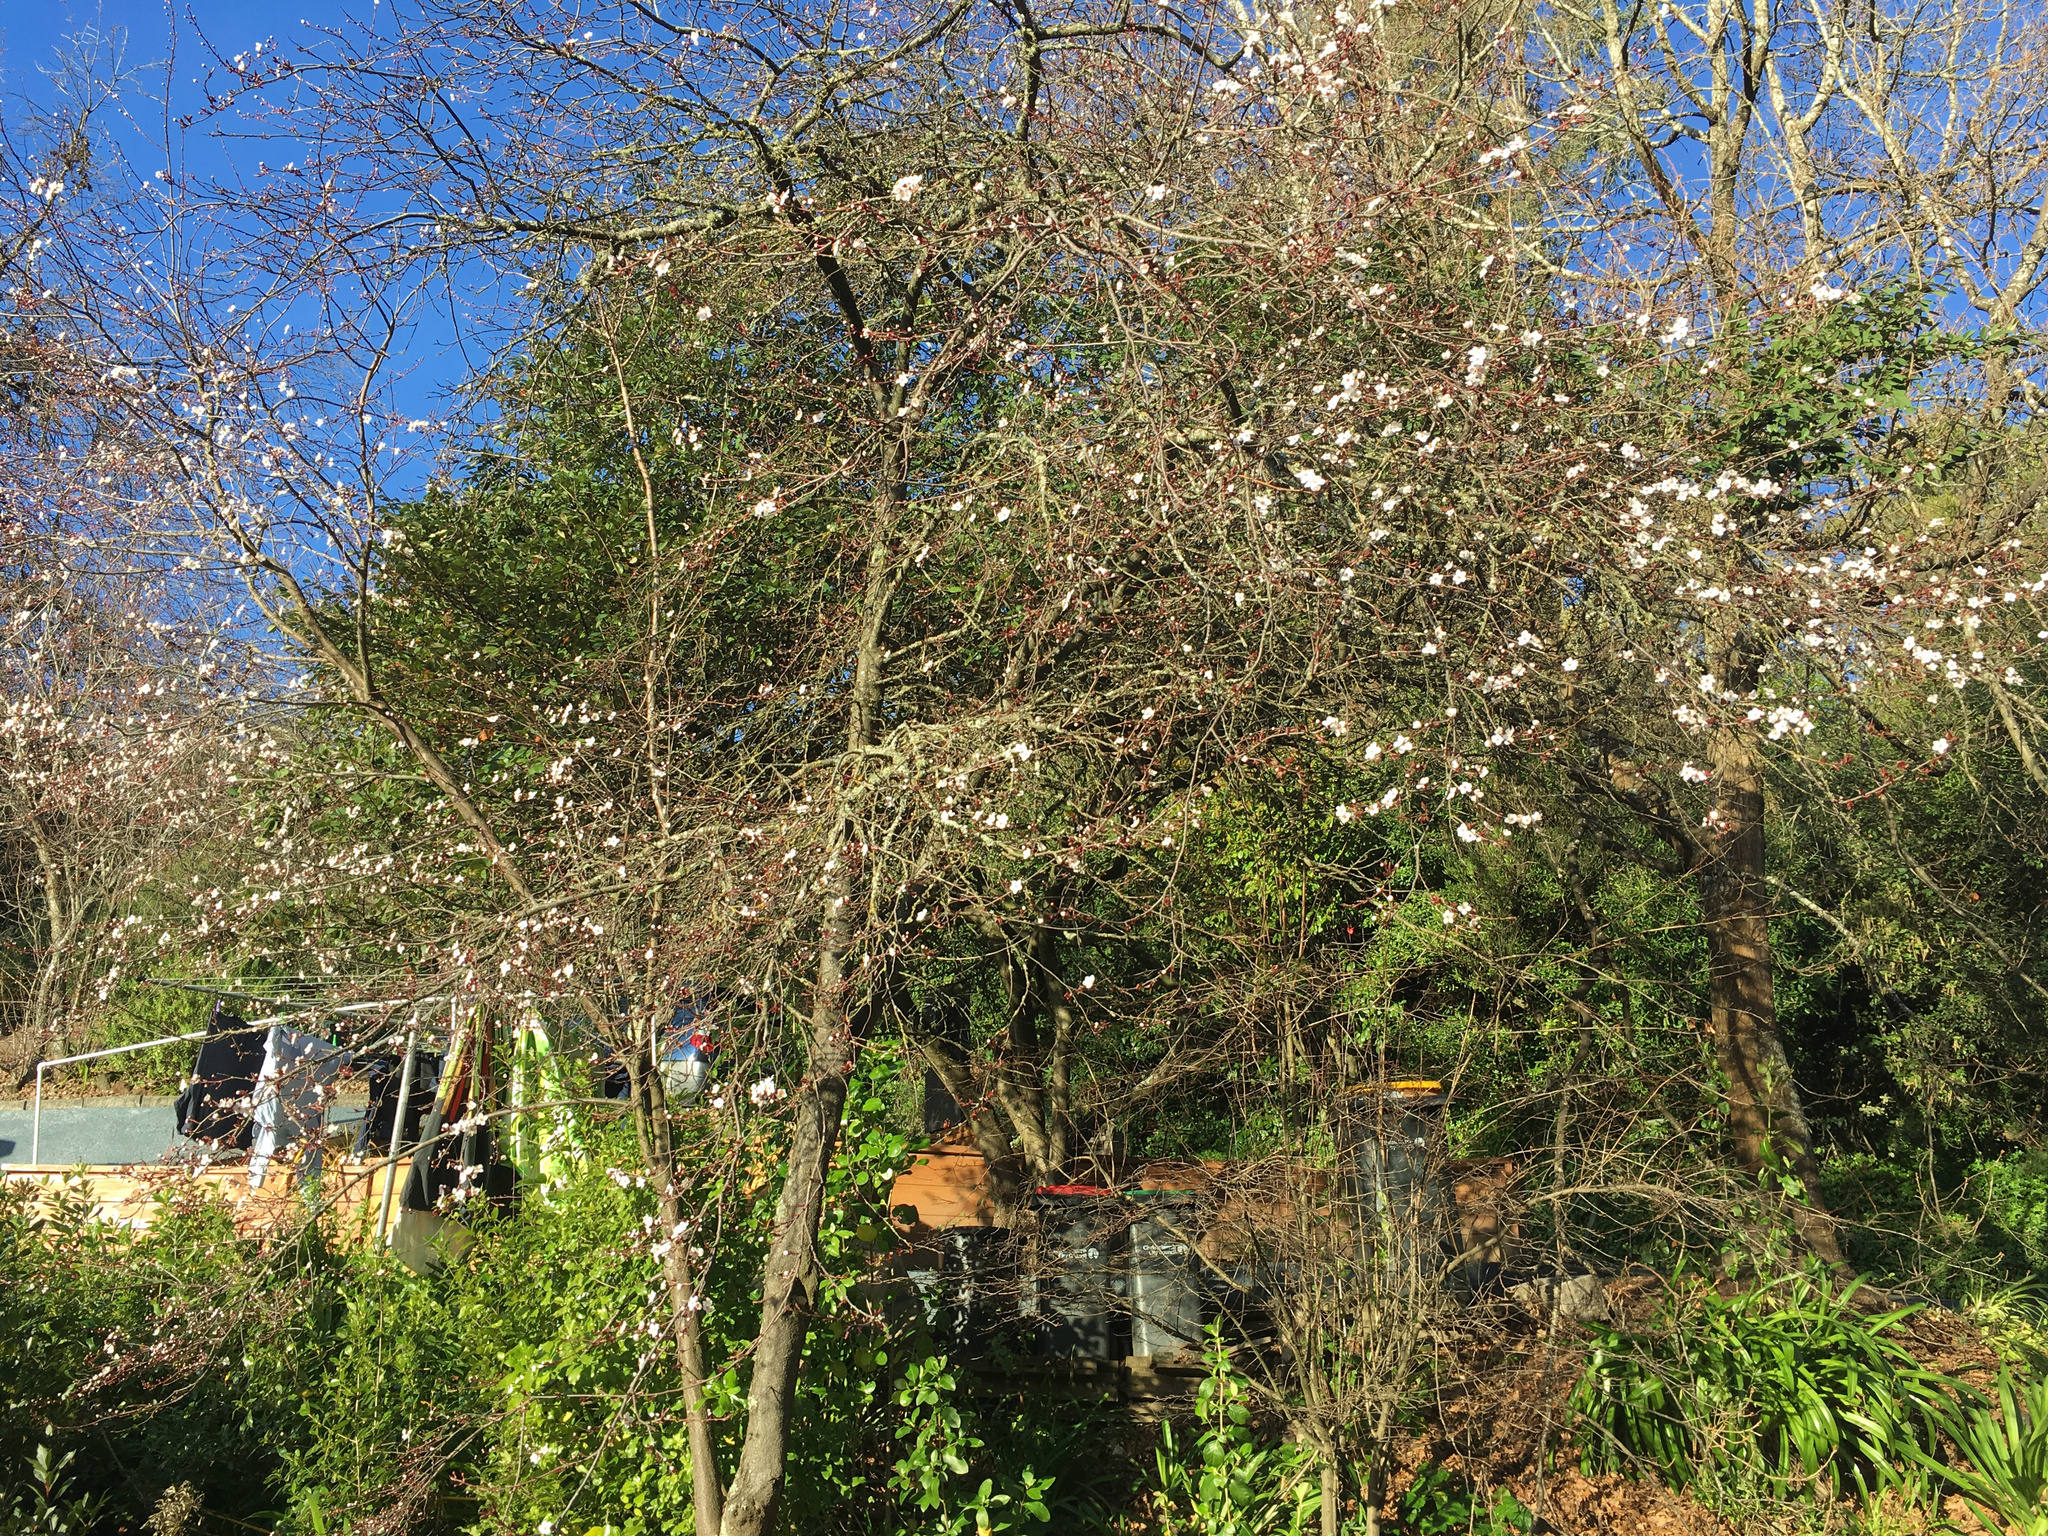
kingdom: Plantae
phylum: Tracheophyta
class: Magnoliopsida
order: Rosales
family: Rosaceae
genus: Prunus
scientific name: Prunus cerasifera
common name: Cherry plum
